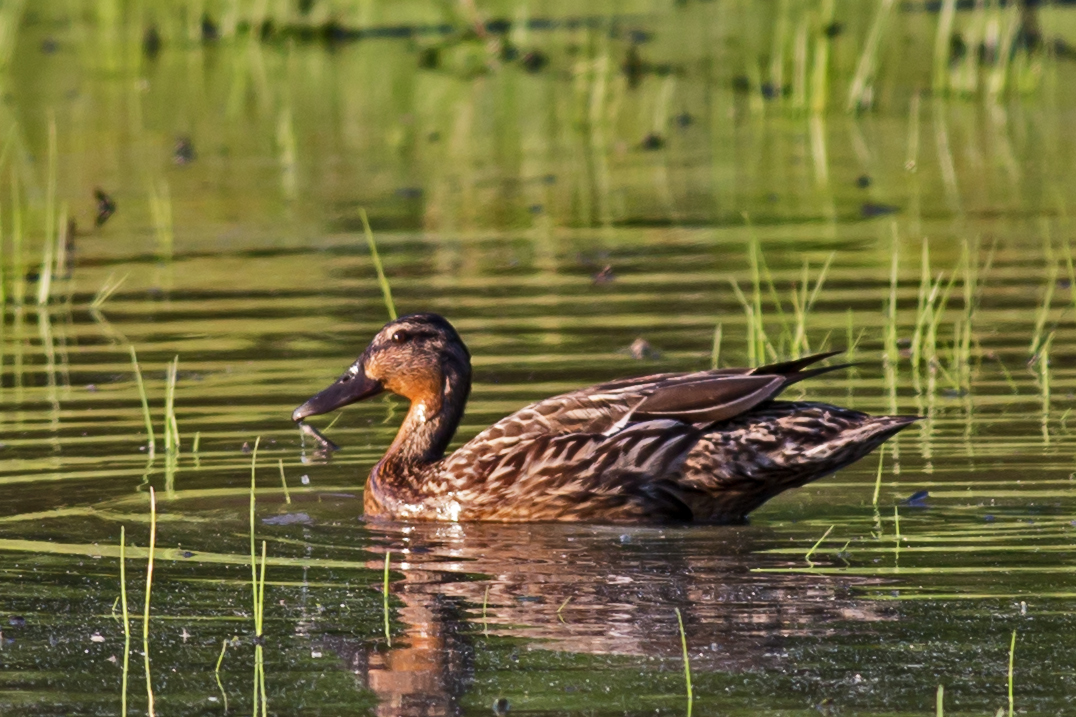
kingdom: Animalia
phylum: Chordata
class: Aves
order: Anseriformes
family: Anatidae
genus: Anas
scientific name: Anas platyrhynchos
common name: Mallard
